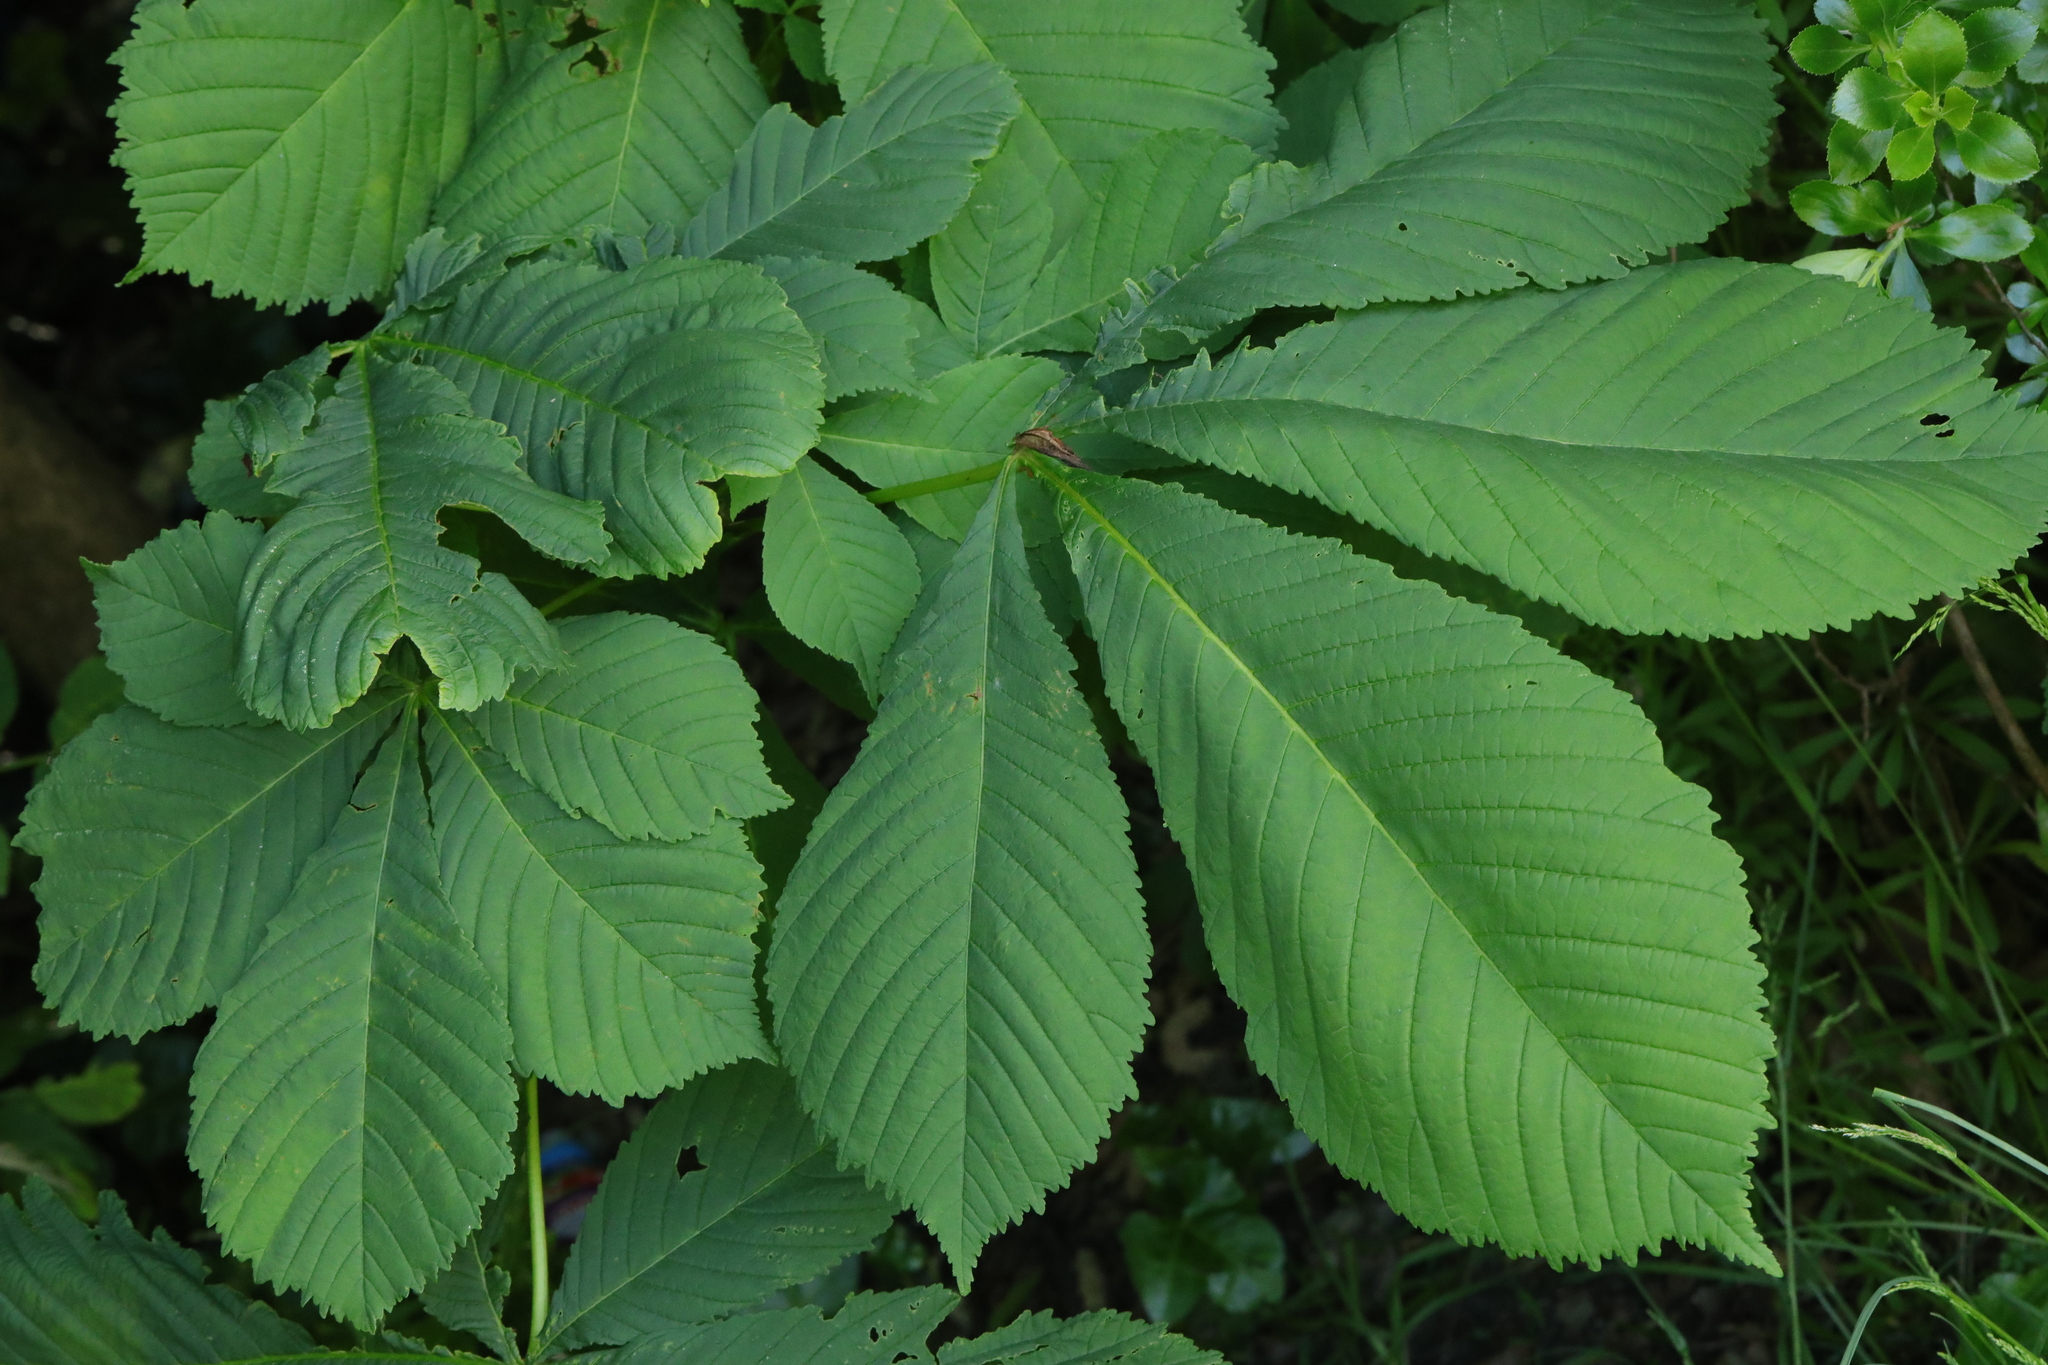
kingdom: Plantae
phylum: Tracheophyta
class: Magnoliopsida
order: Sapindales
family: Sapindaceae
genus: Aesculus
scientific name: Aesculus hippocastanum
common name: Horse-chestnut
